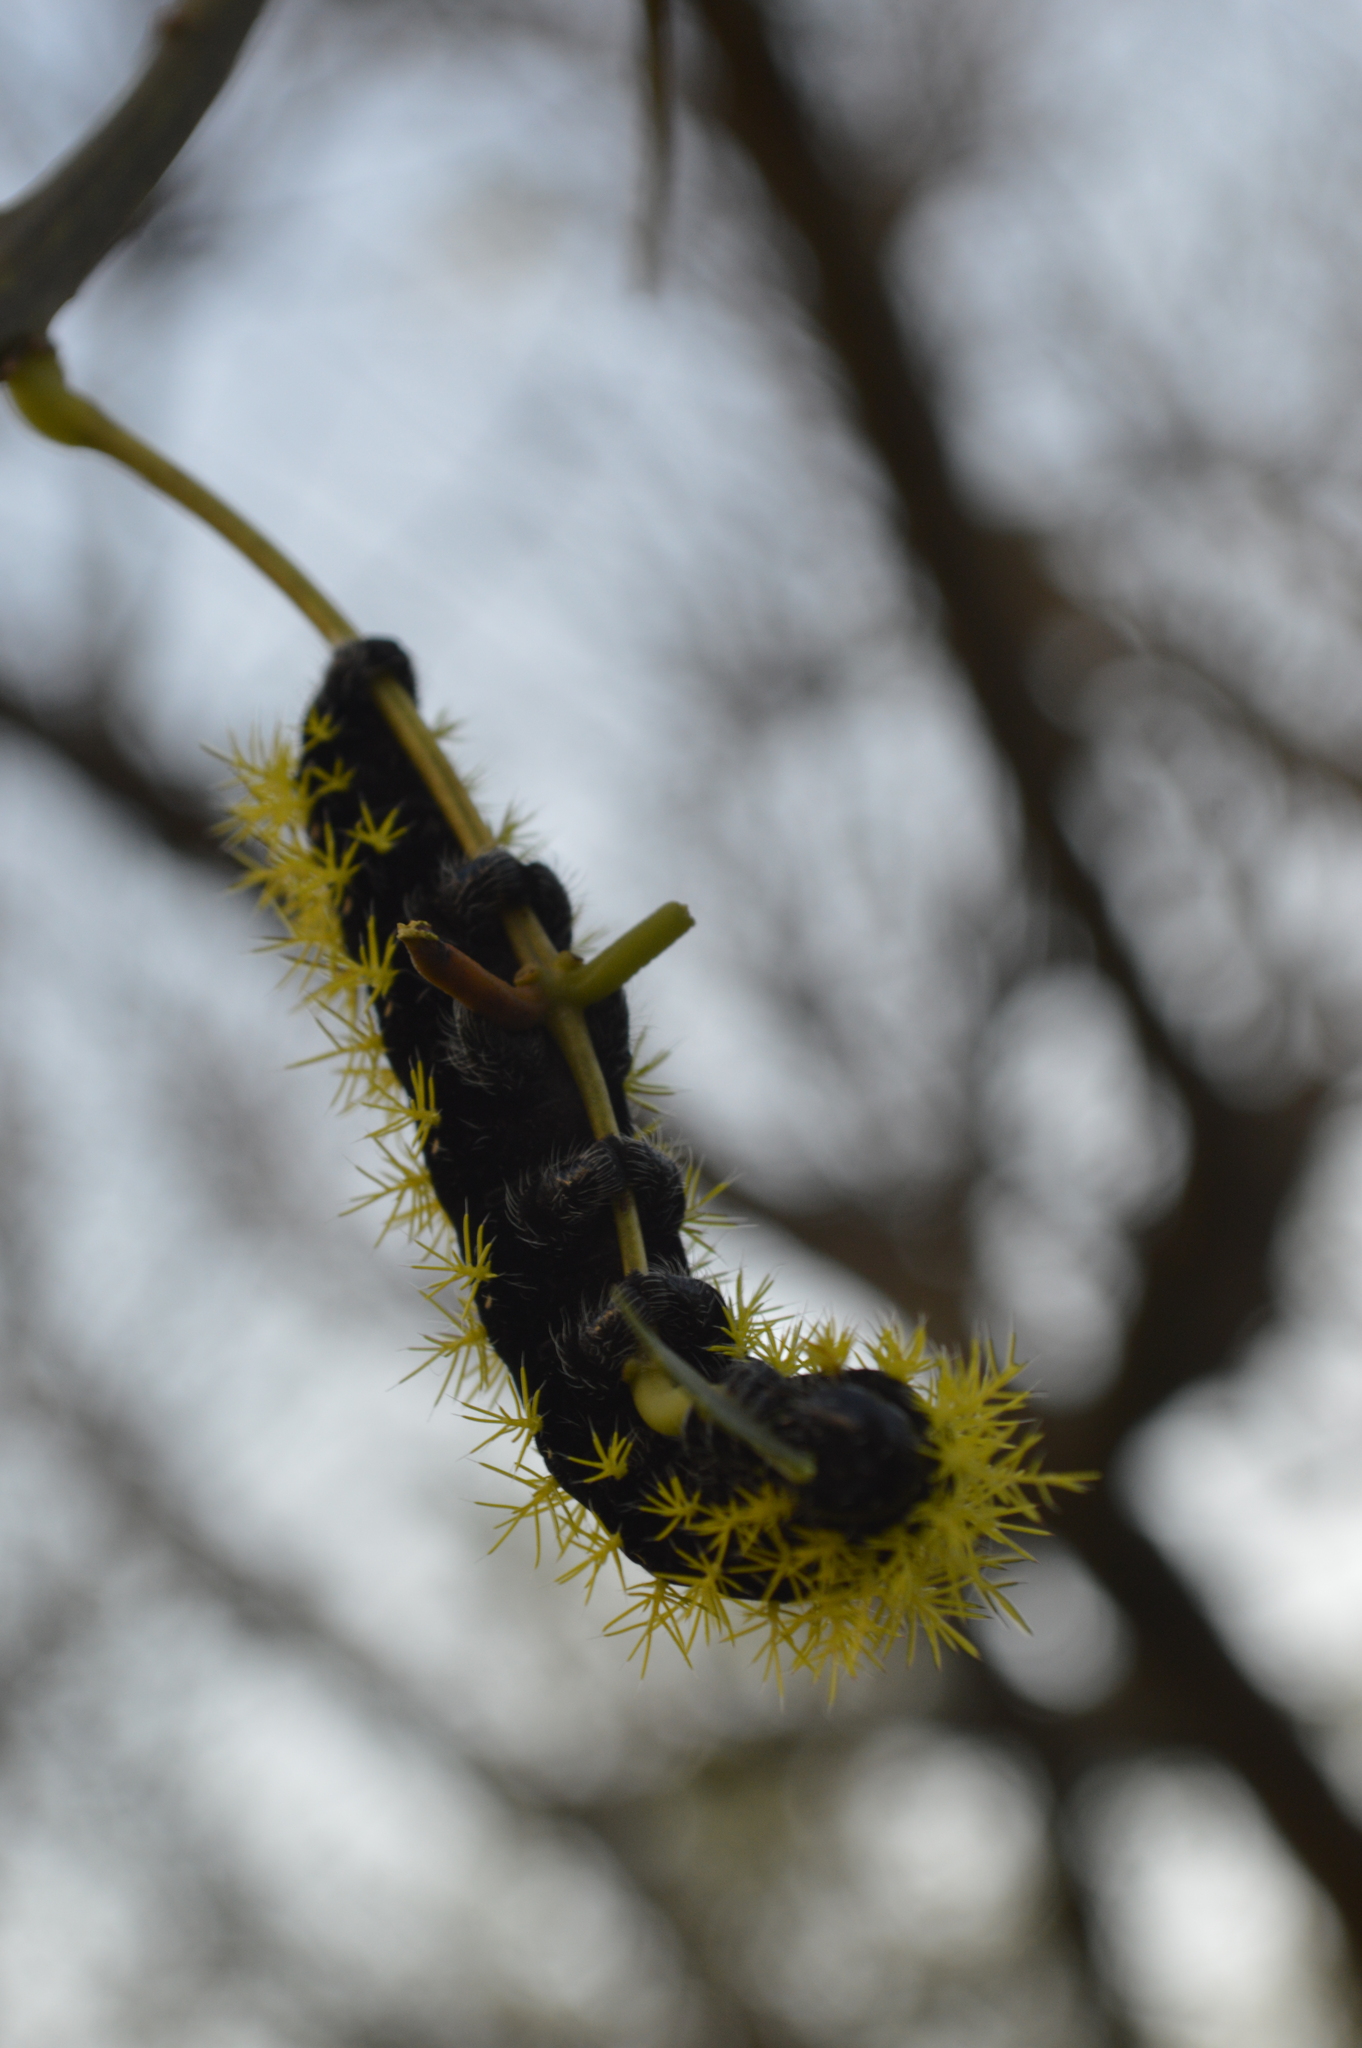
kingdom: Animalia
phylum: Arthropoda
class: Insecta
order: Lepidoptera
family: Saturniidae
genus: Leucanella
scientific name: Leucanella viridescens
